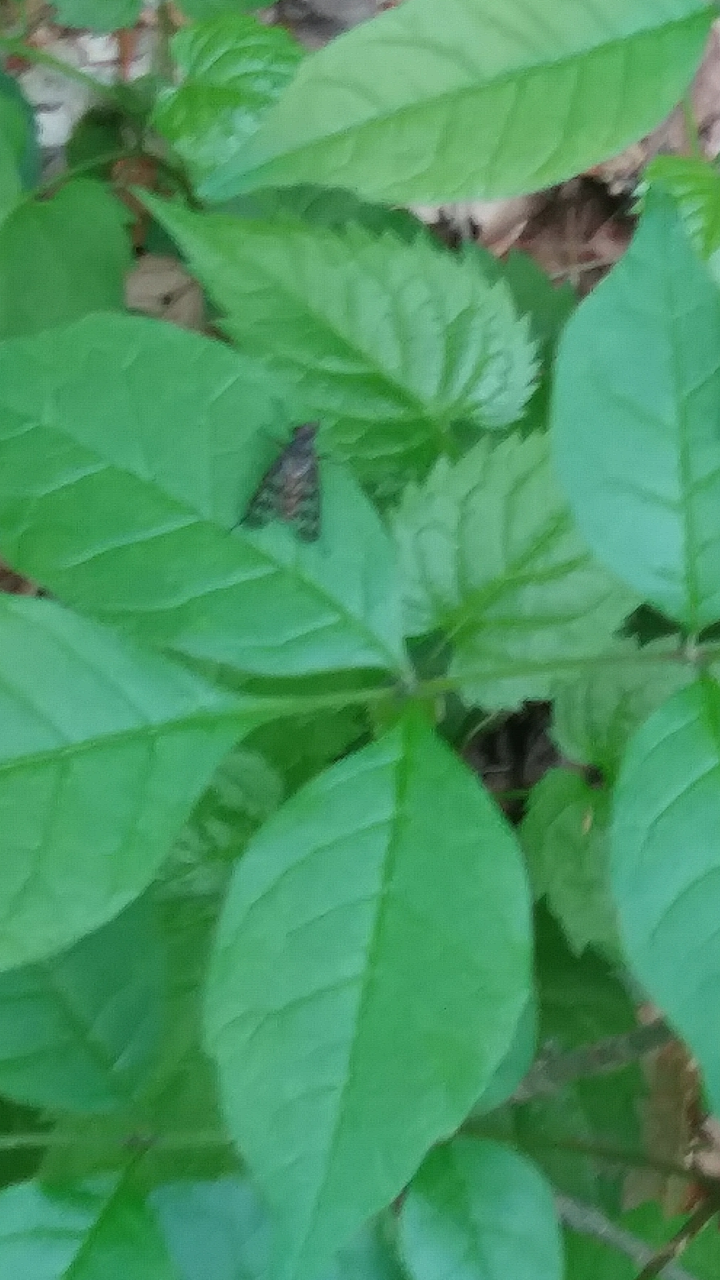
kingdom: Animalia
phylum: Arthropoda
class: Insecta
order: Diptera
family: Rhagionidae
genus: Rhagio
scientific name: Rhagio mystaceus
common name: Common snipe fly
